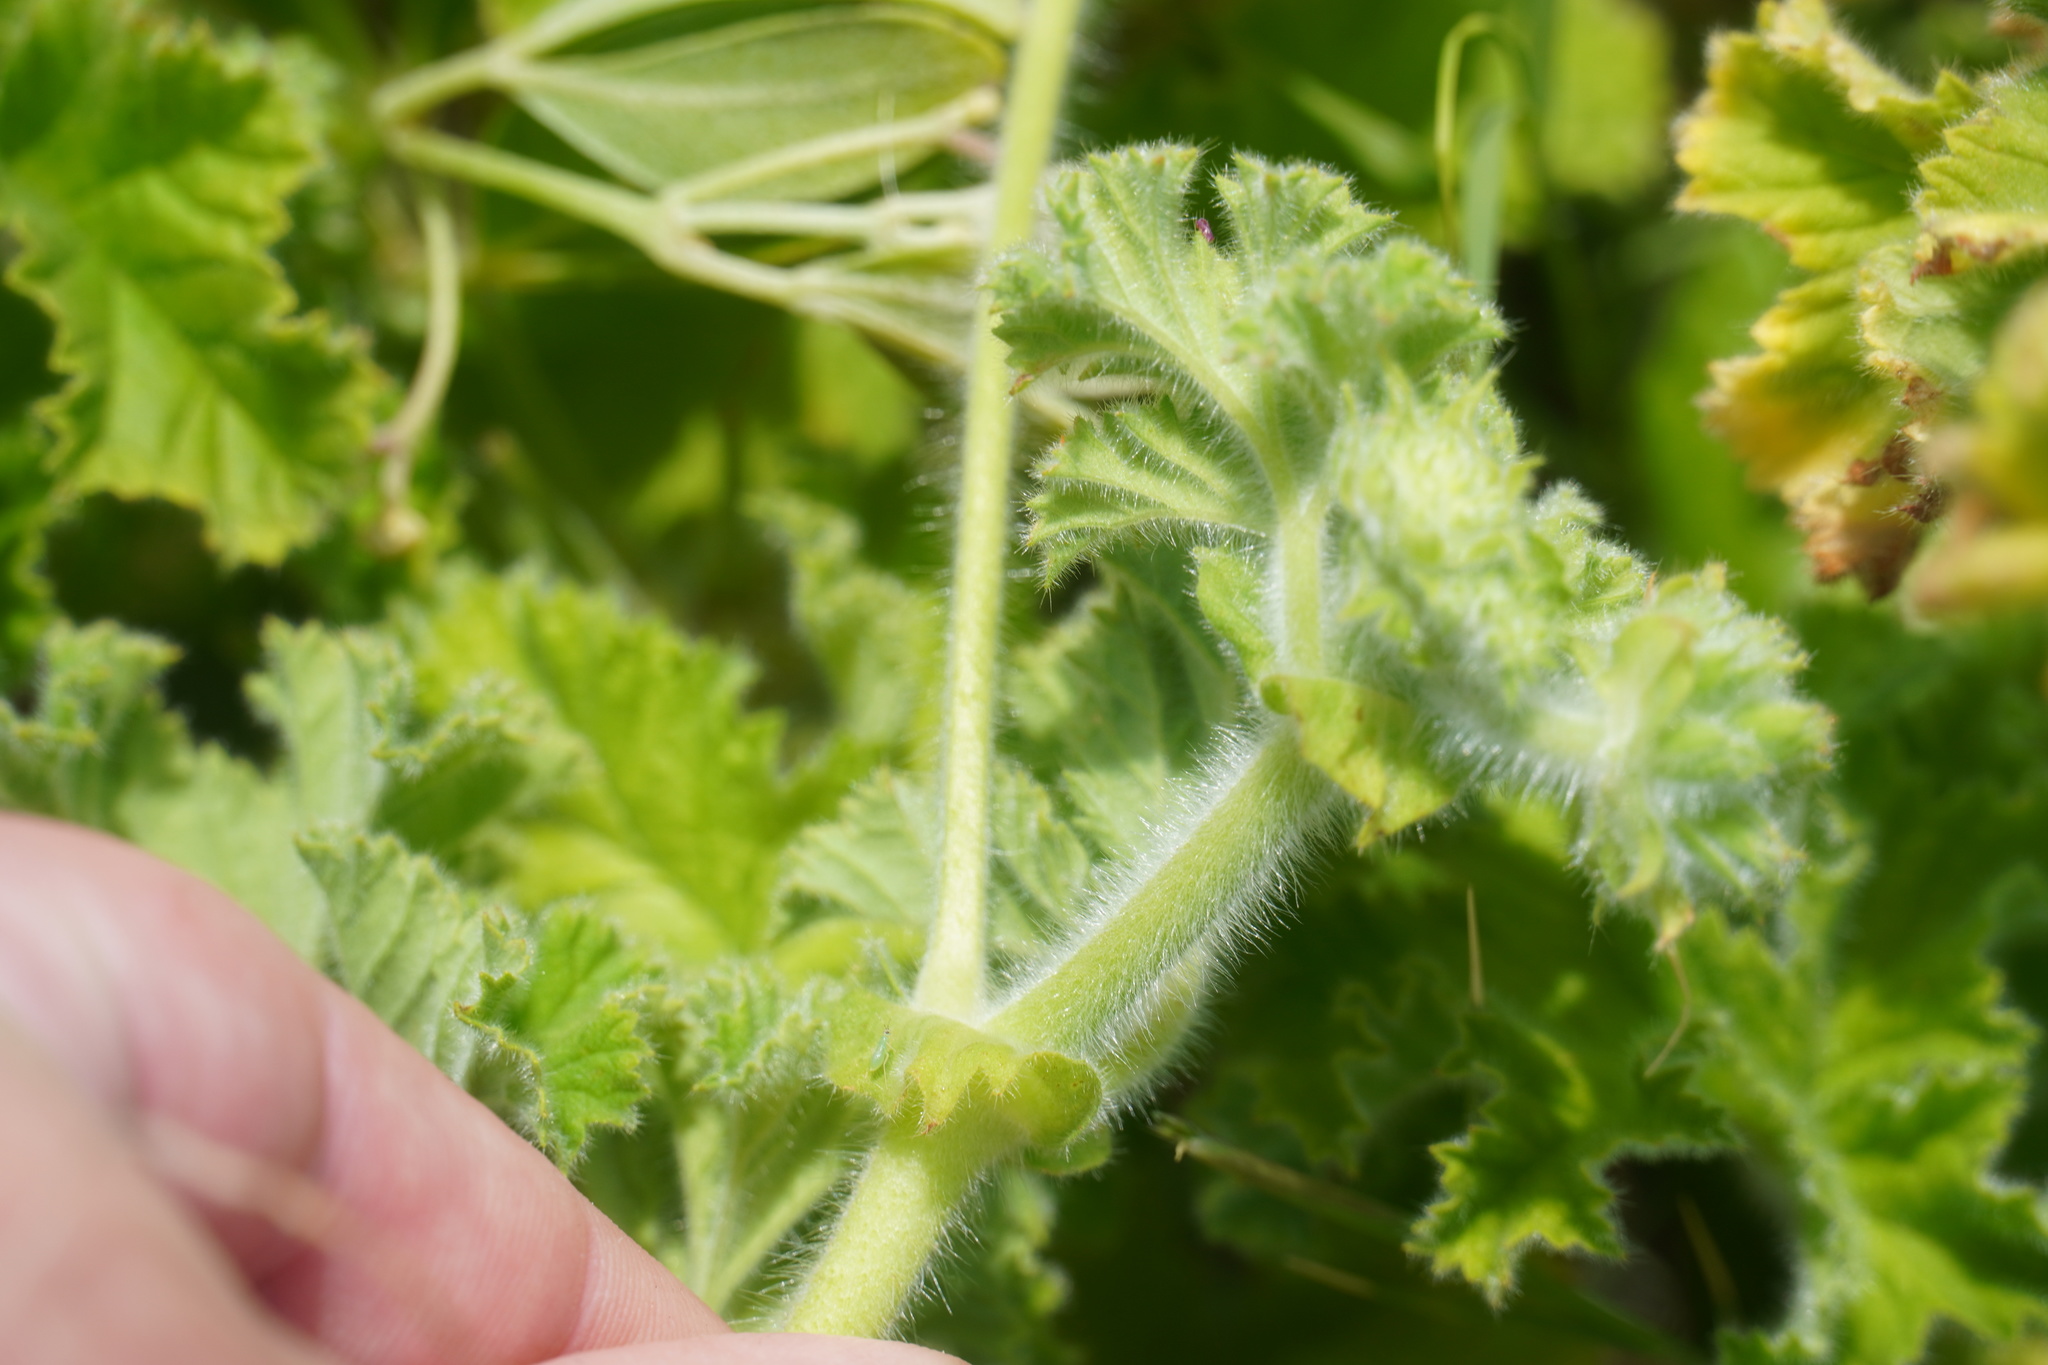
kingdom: Plantae
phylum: Tracheophyta
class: Magnoliopsida
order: Geraniales
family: Geraniaceae
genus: Pelargonium
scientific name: Pelargonium capitatum
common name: Rose scented geranium
